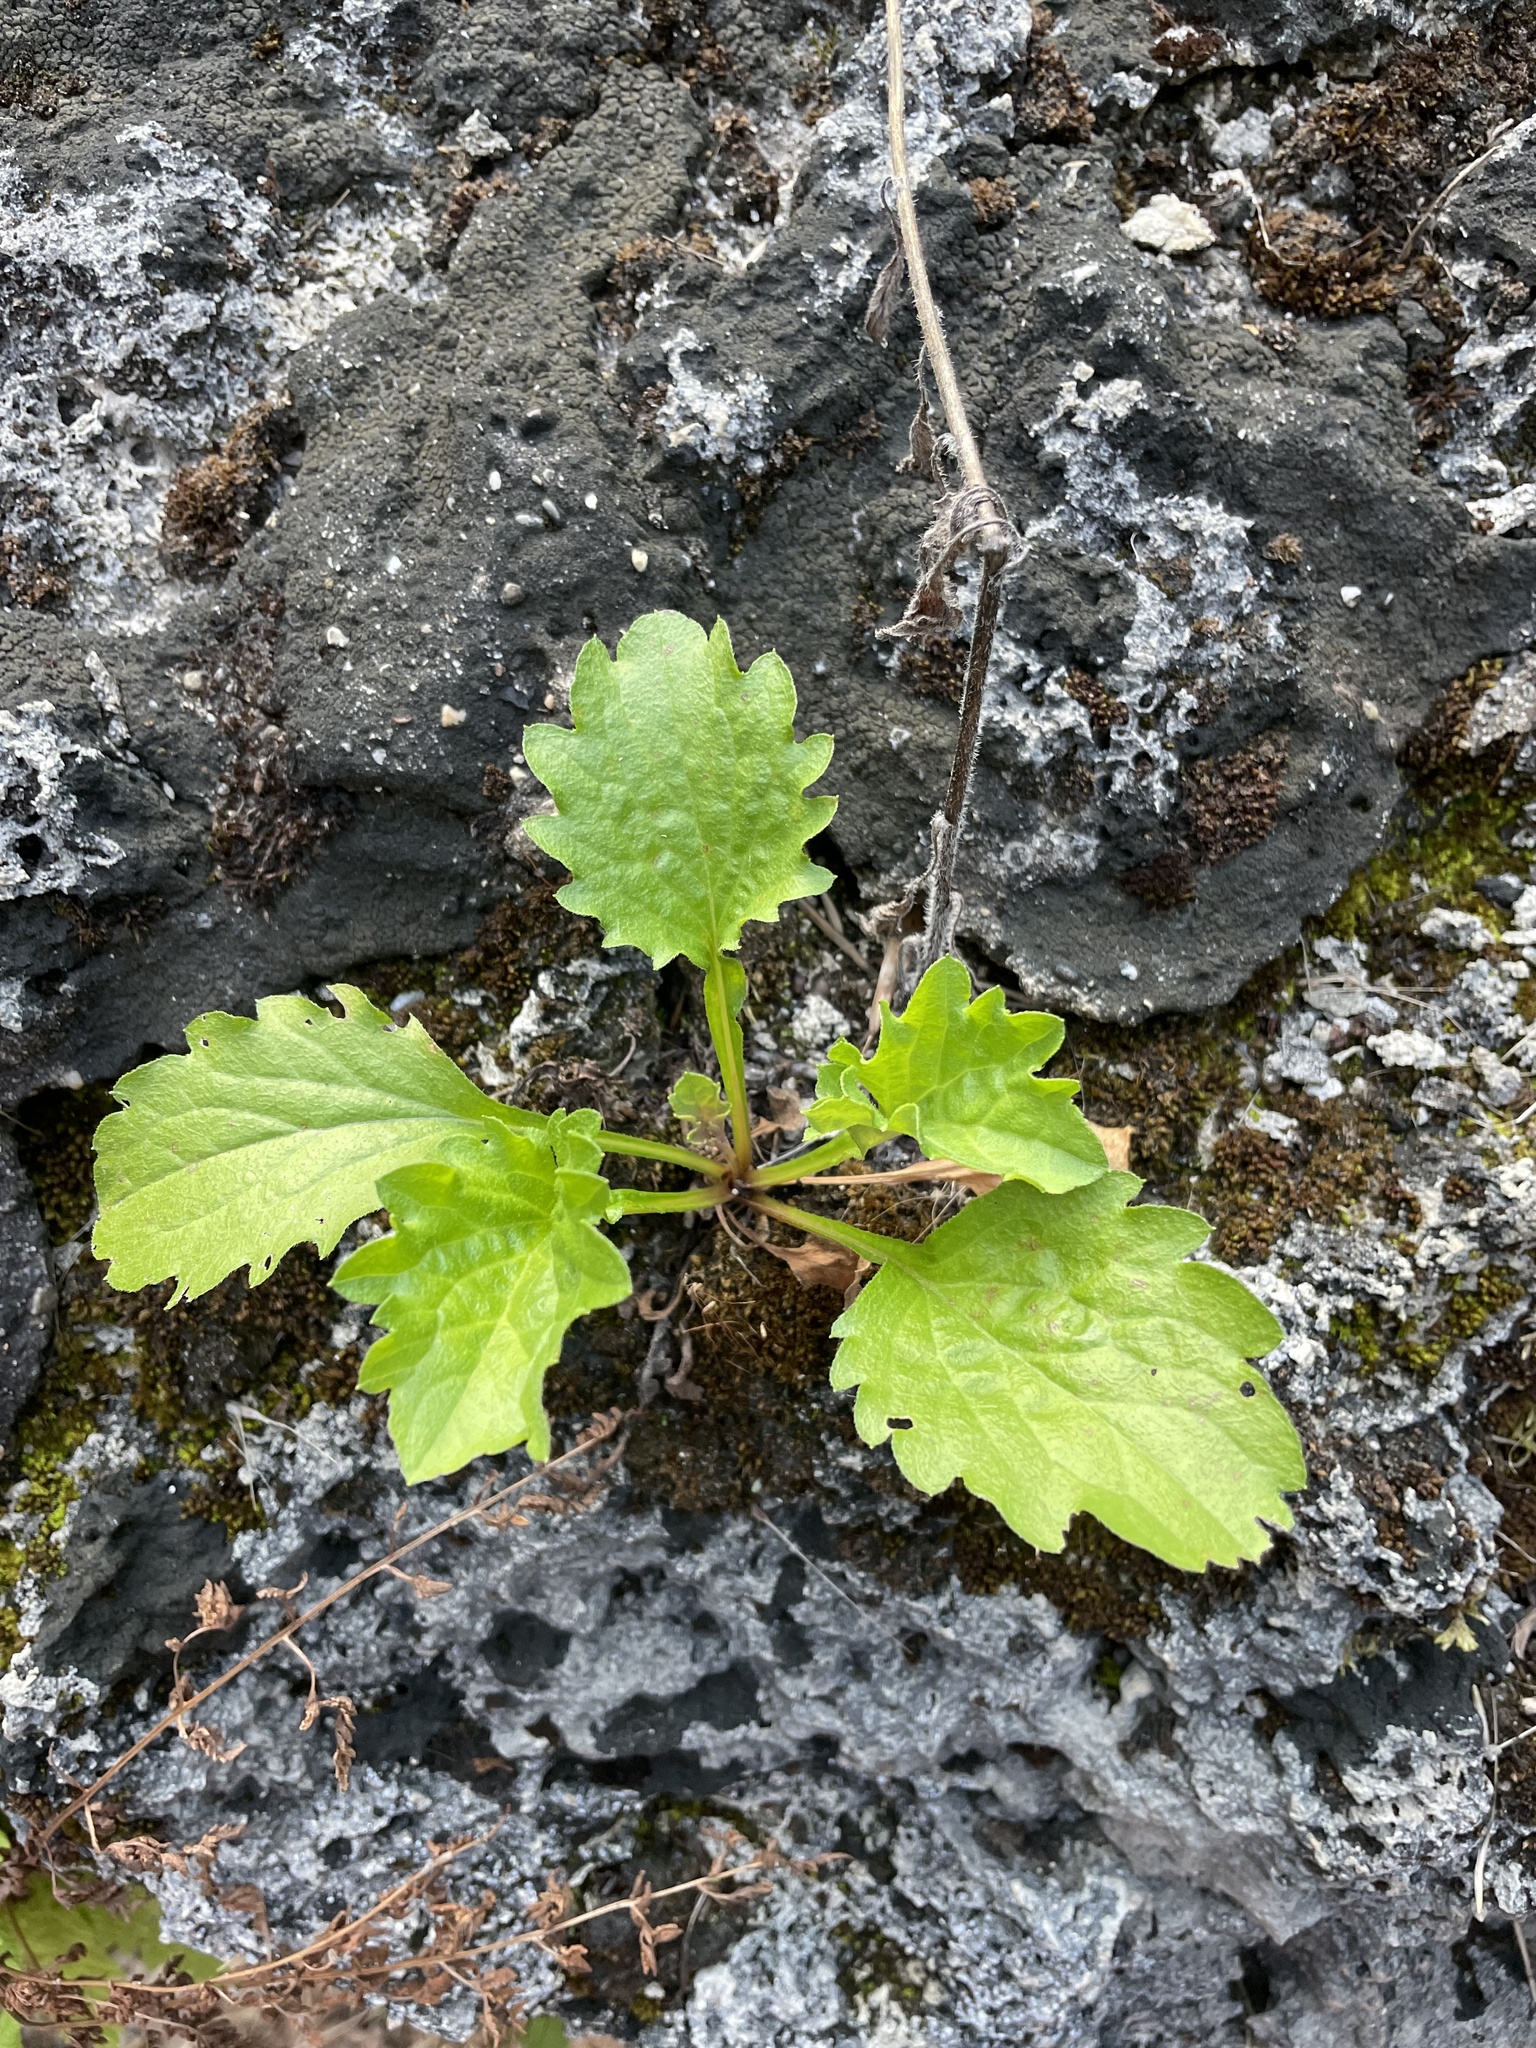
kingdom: Plantae
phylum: Tracheophyta
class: Magnoliopsida
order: Asterales
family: Asteraceae
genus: Erigeron
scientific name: Erigeron annuus
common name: Tall fleabane
